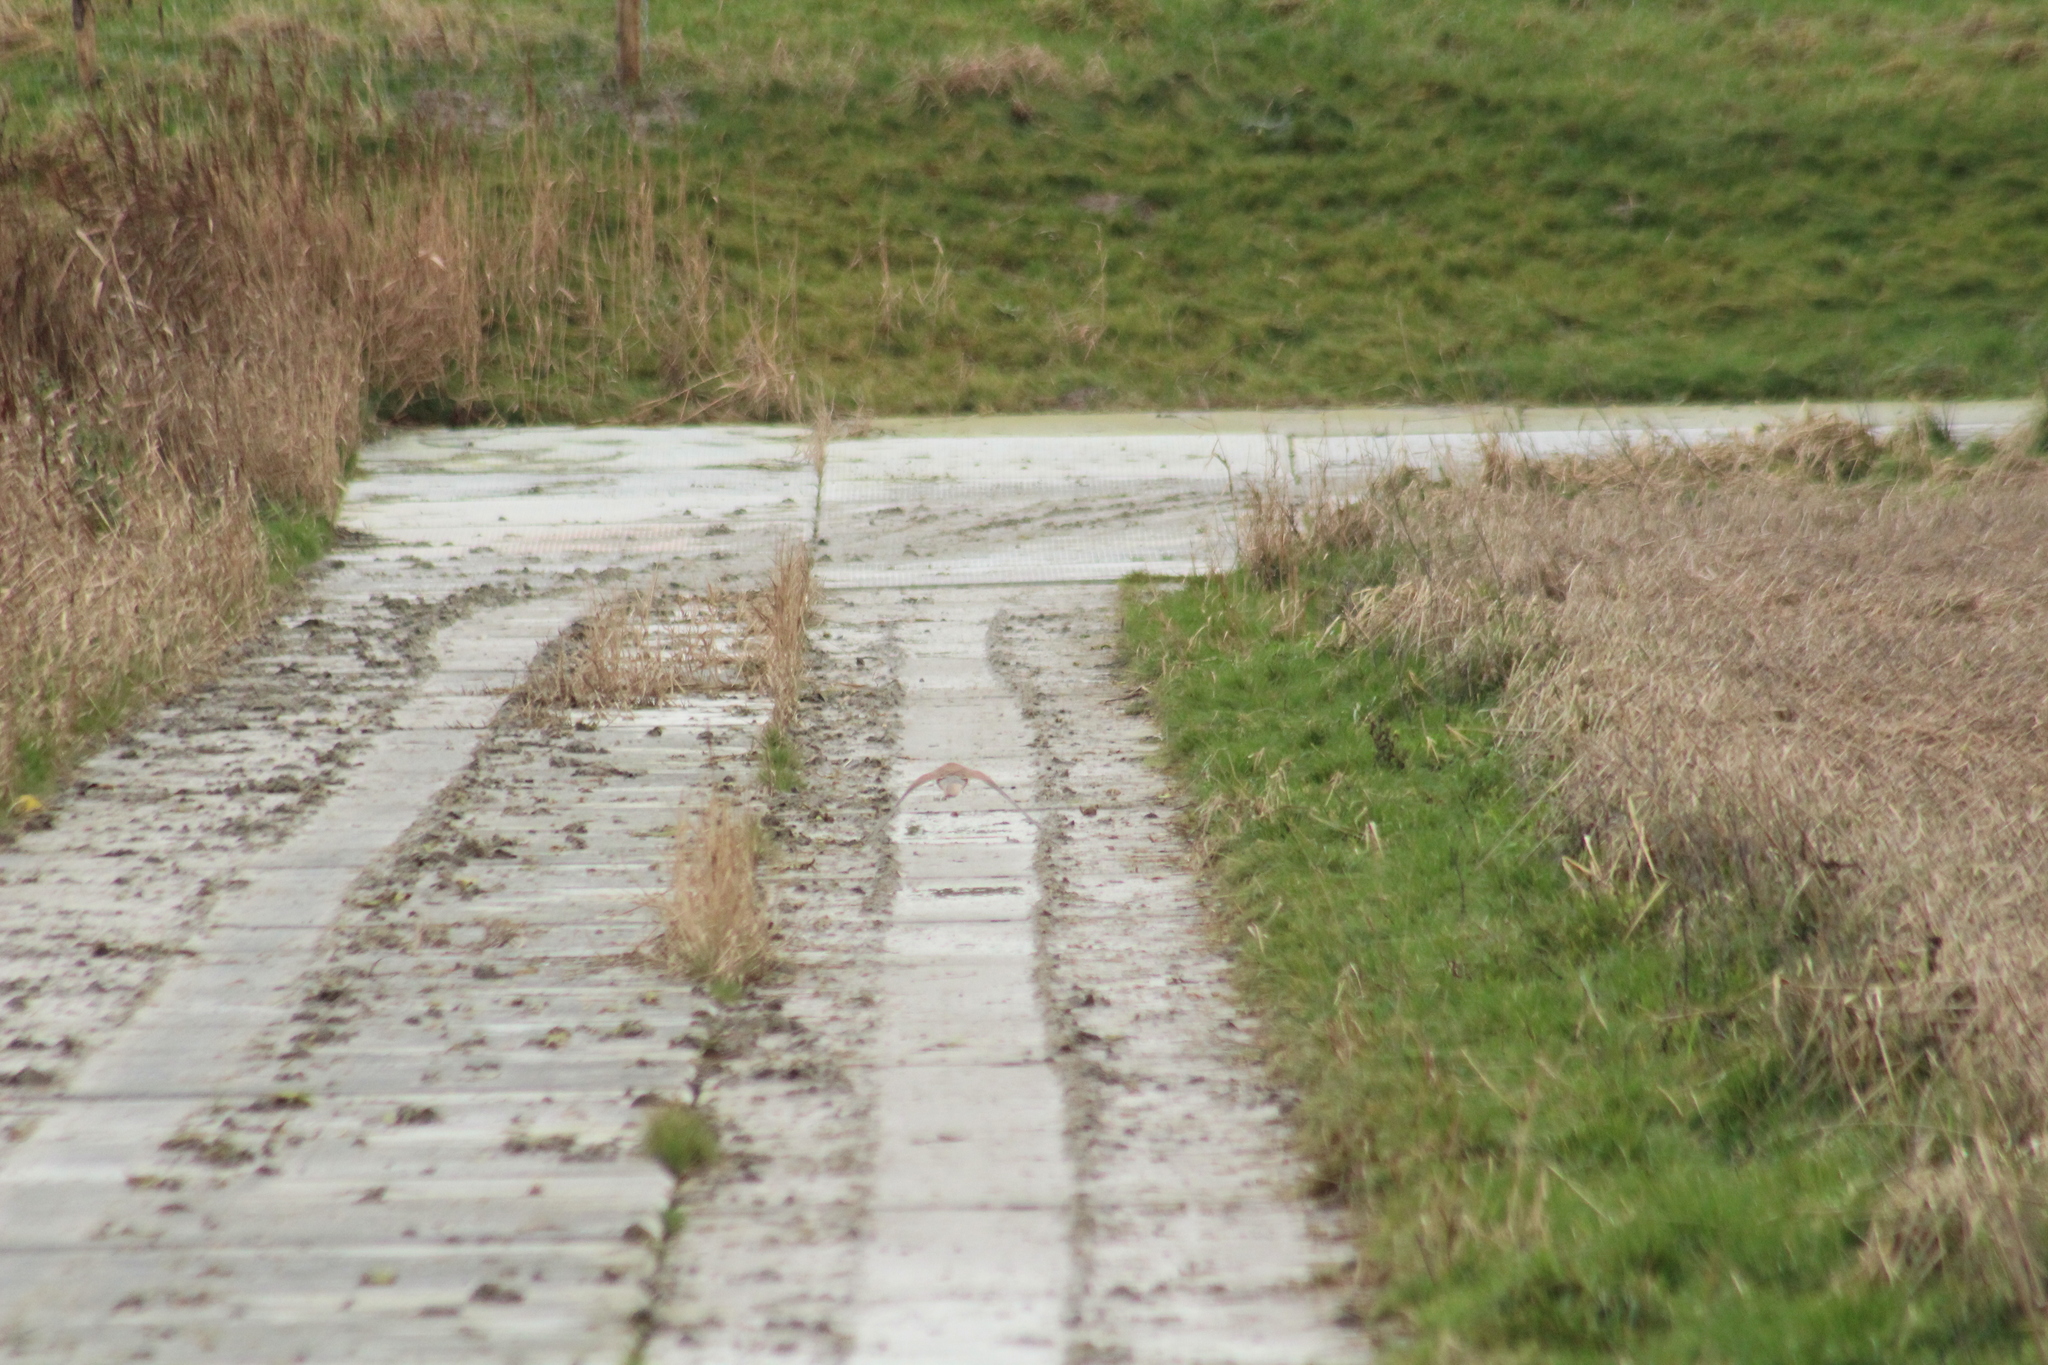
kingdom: Animalia
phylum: Chordata
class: Aves
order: Falconiformes
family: Falconidae
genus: Falco
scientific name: Falco tinnunculus
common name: Common kestrel
